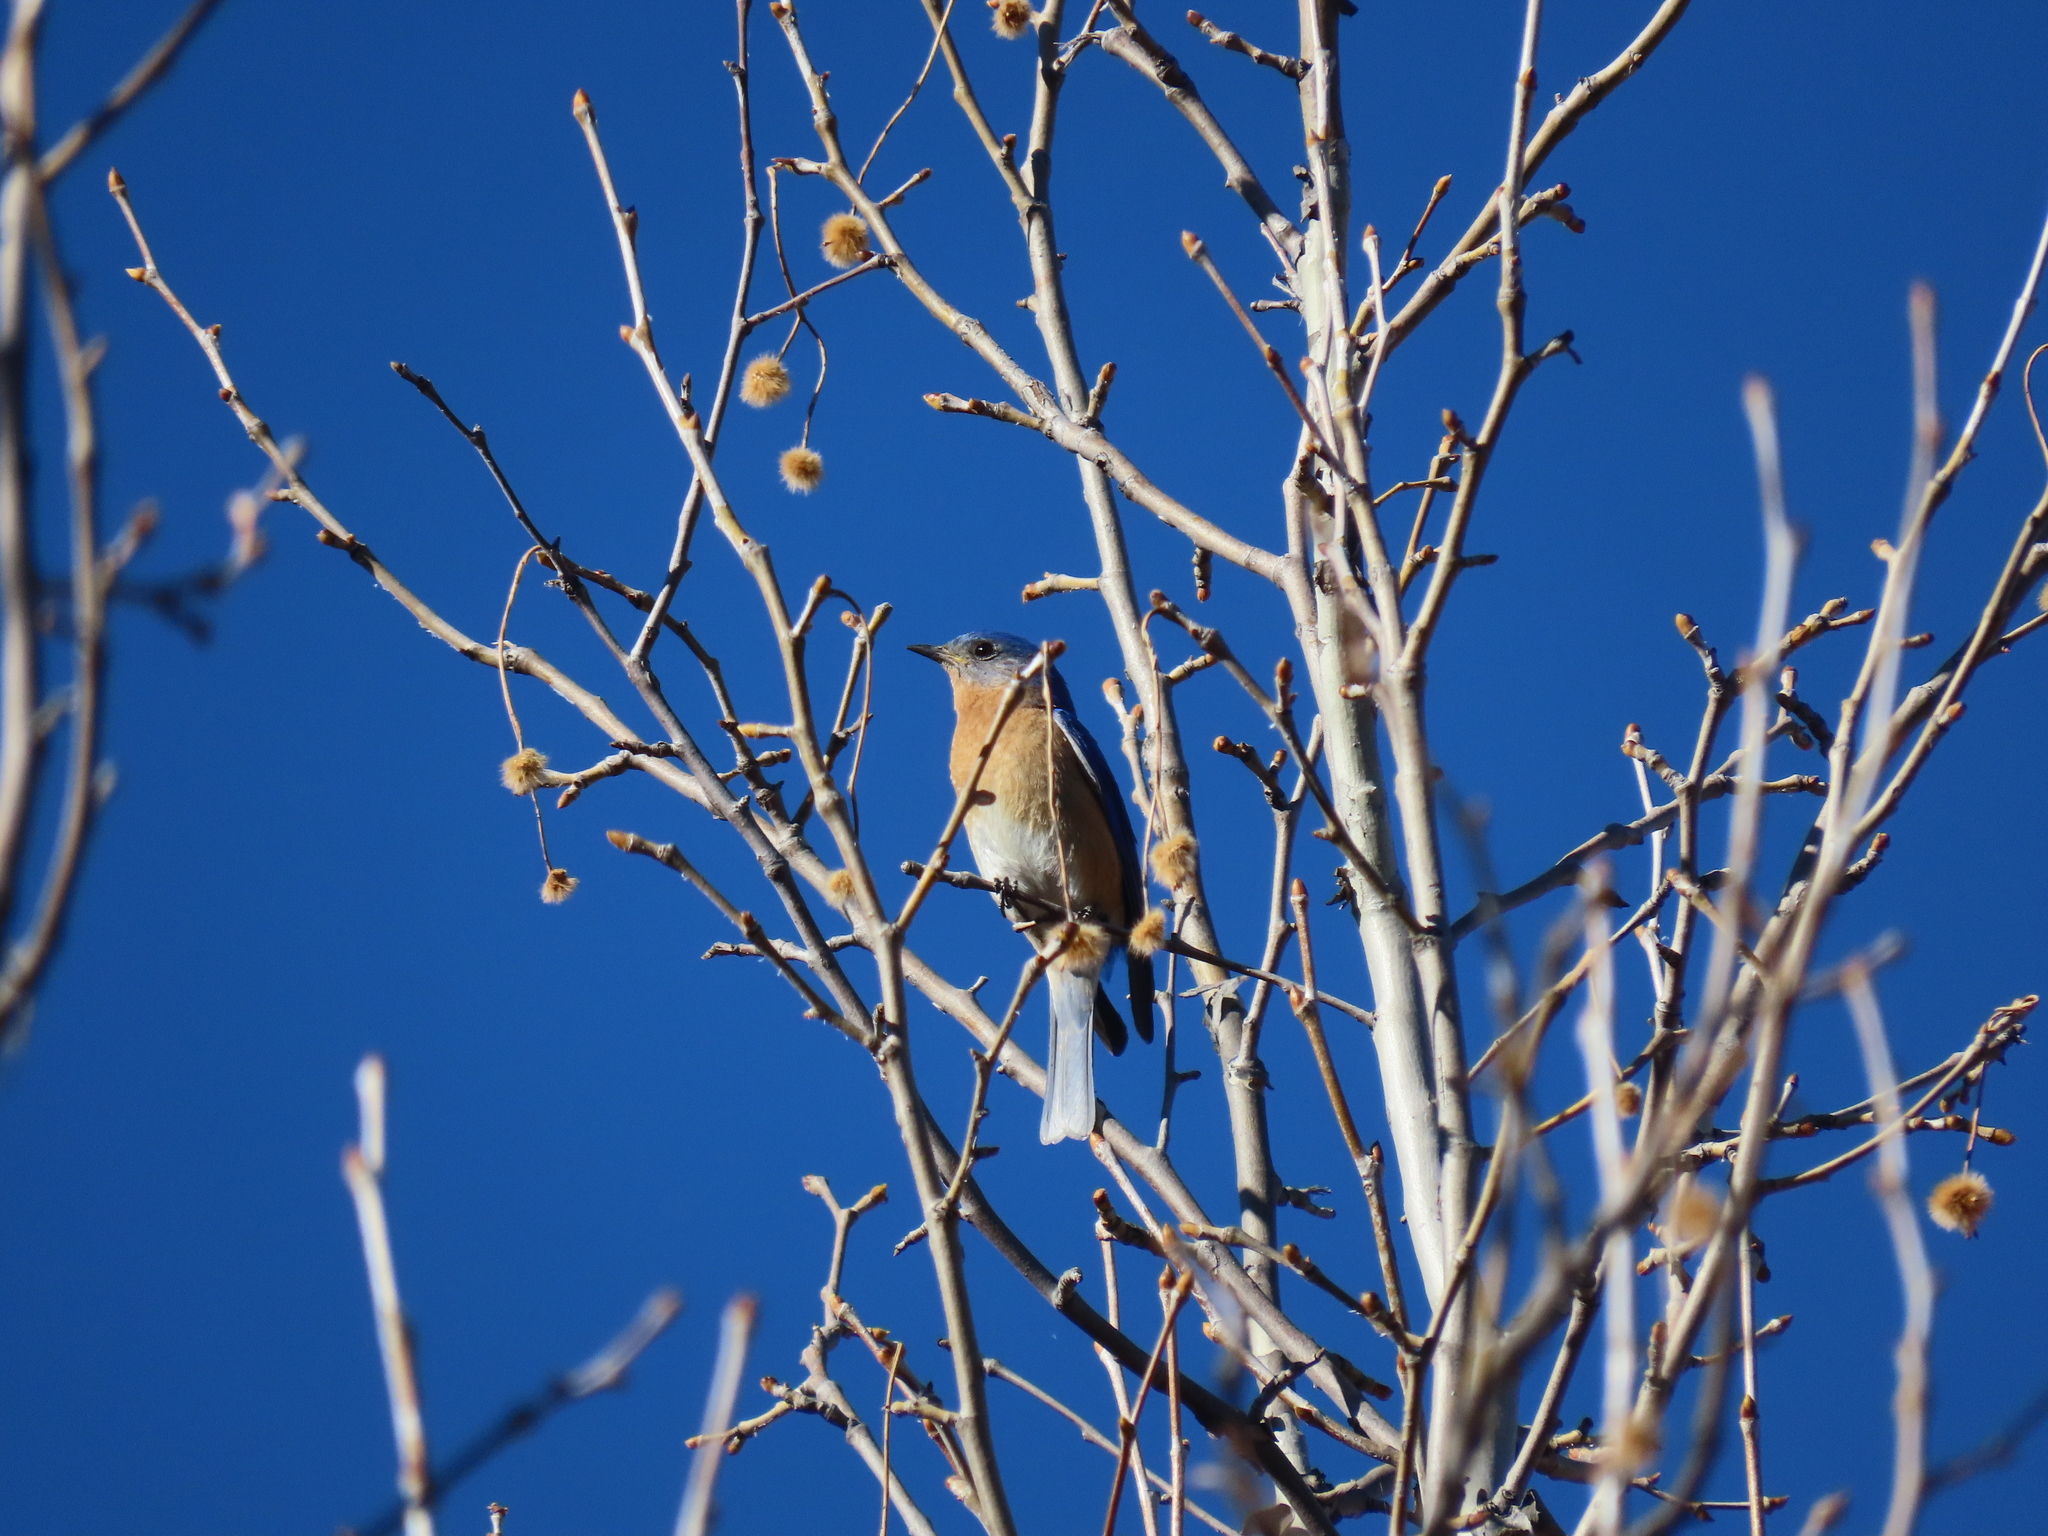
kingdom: Animalia
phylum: Chordata
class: Aves
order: Passeriformes
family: Turdidae
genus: Sialia
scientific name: Sialia sialis
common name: Eastern bluebird
